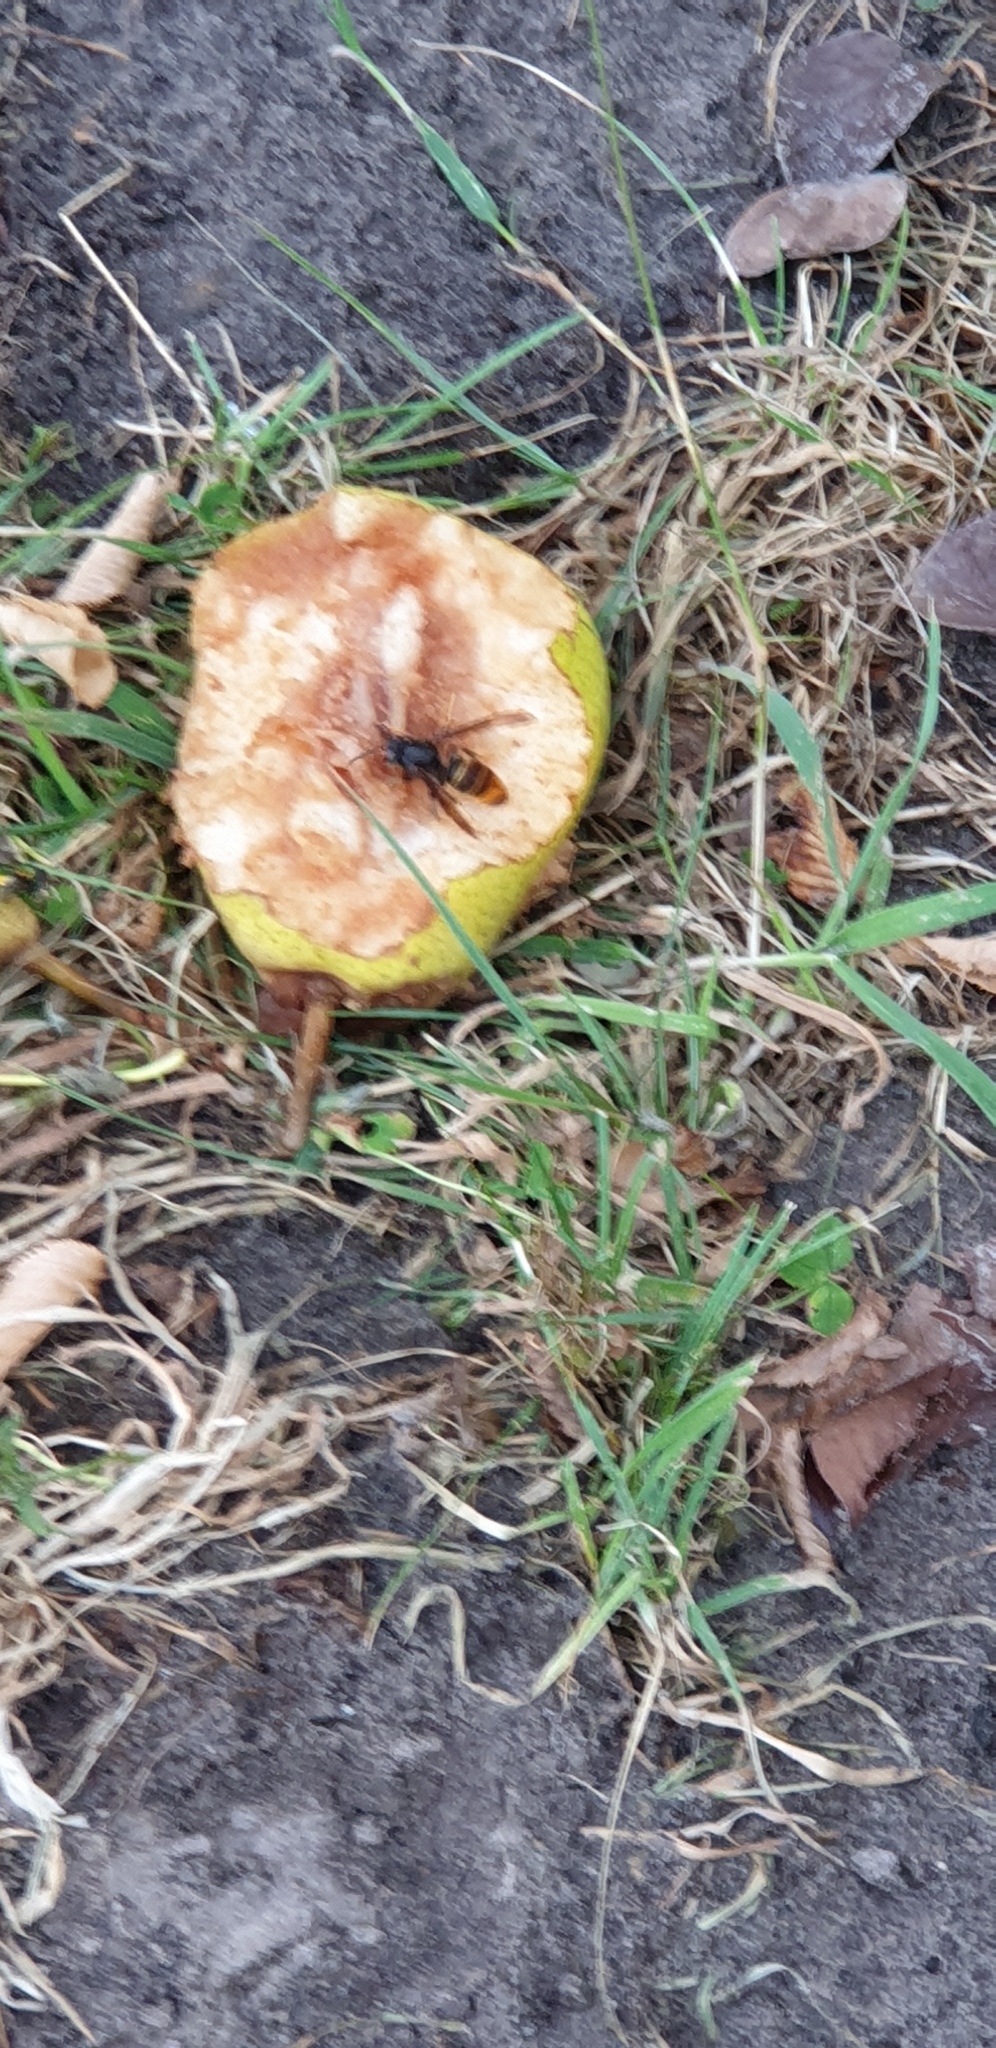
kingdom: Animalia
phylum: Arthropoda
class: Insecta
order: Hymenoptera
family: Vespidae
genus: Vespa
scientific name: Vespa velutina
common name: Asian hornet
